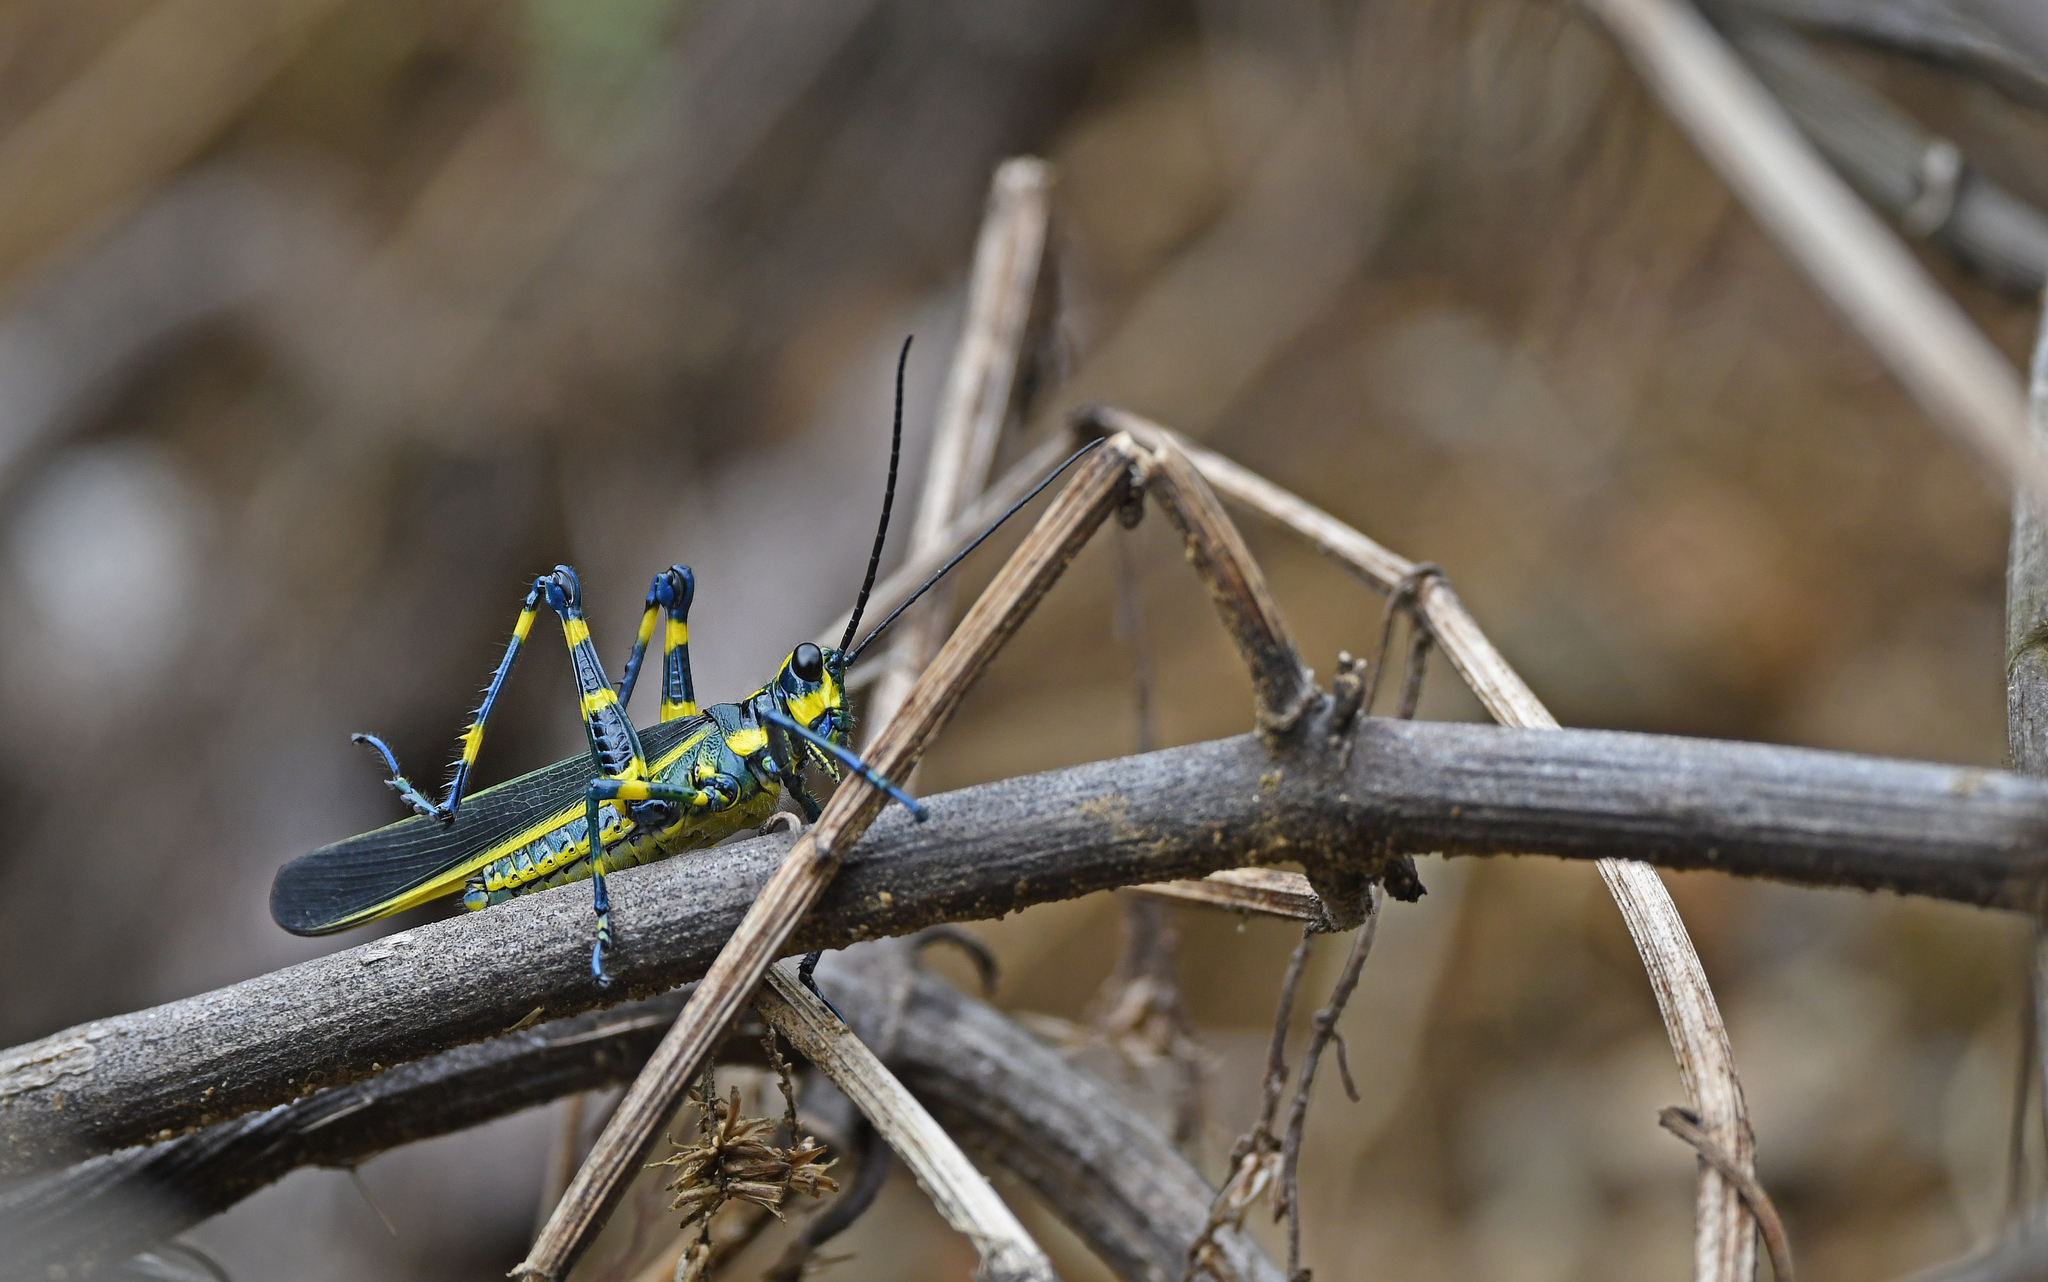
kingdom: Animalia
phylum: Arthropoda
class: Insecta
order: Orthoptera
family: Romaleidae
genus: Chromacris
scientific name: Chromacris peruviana
